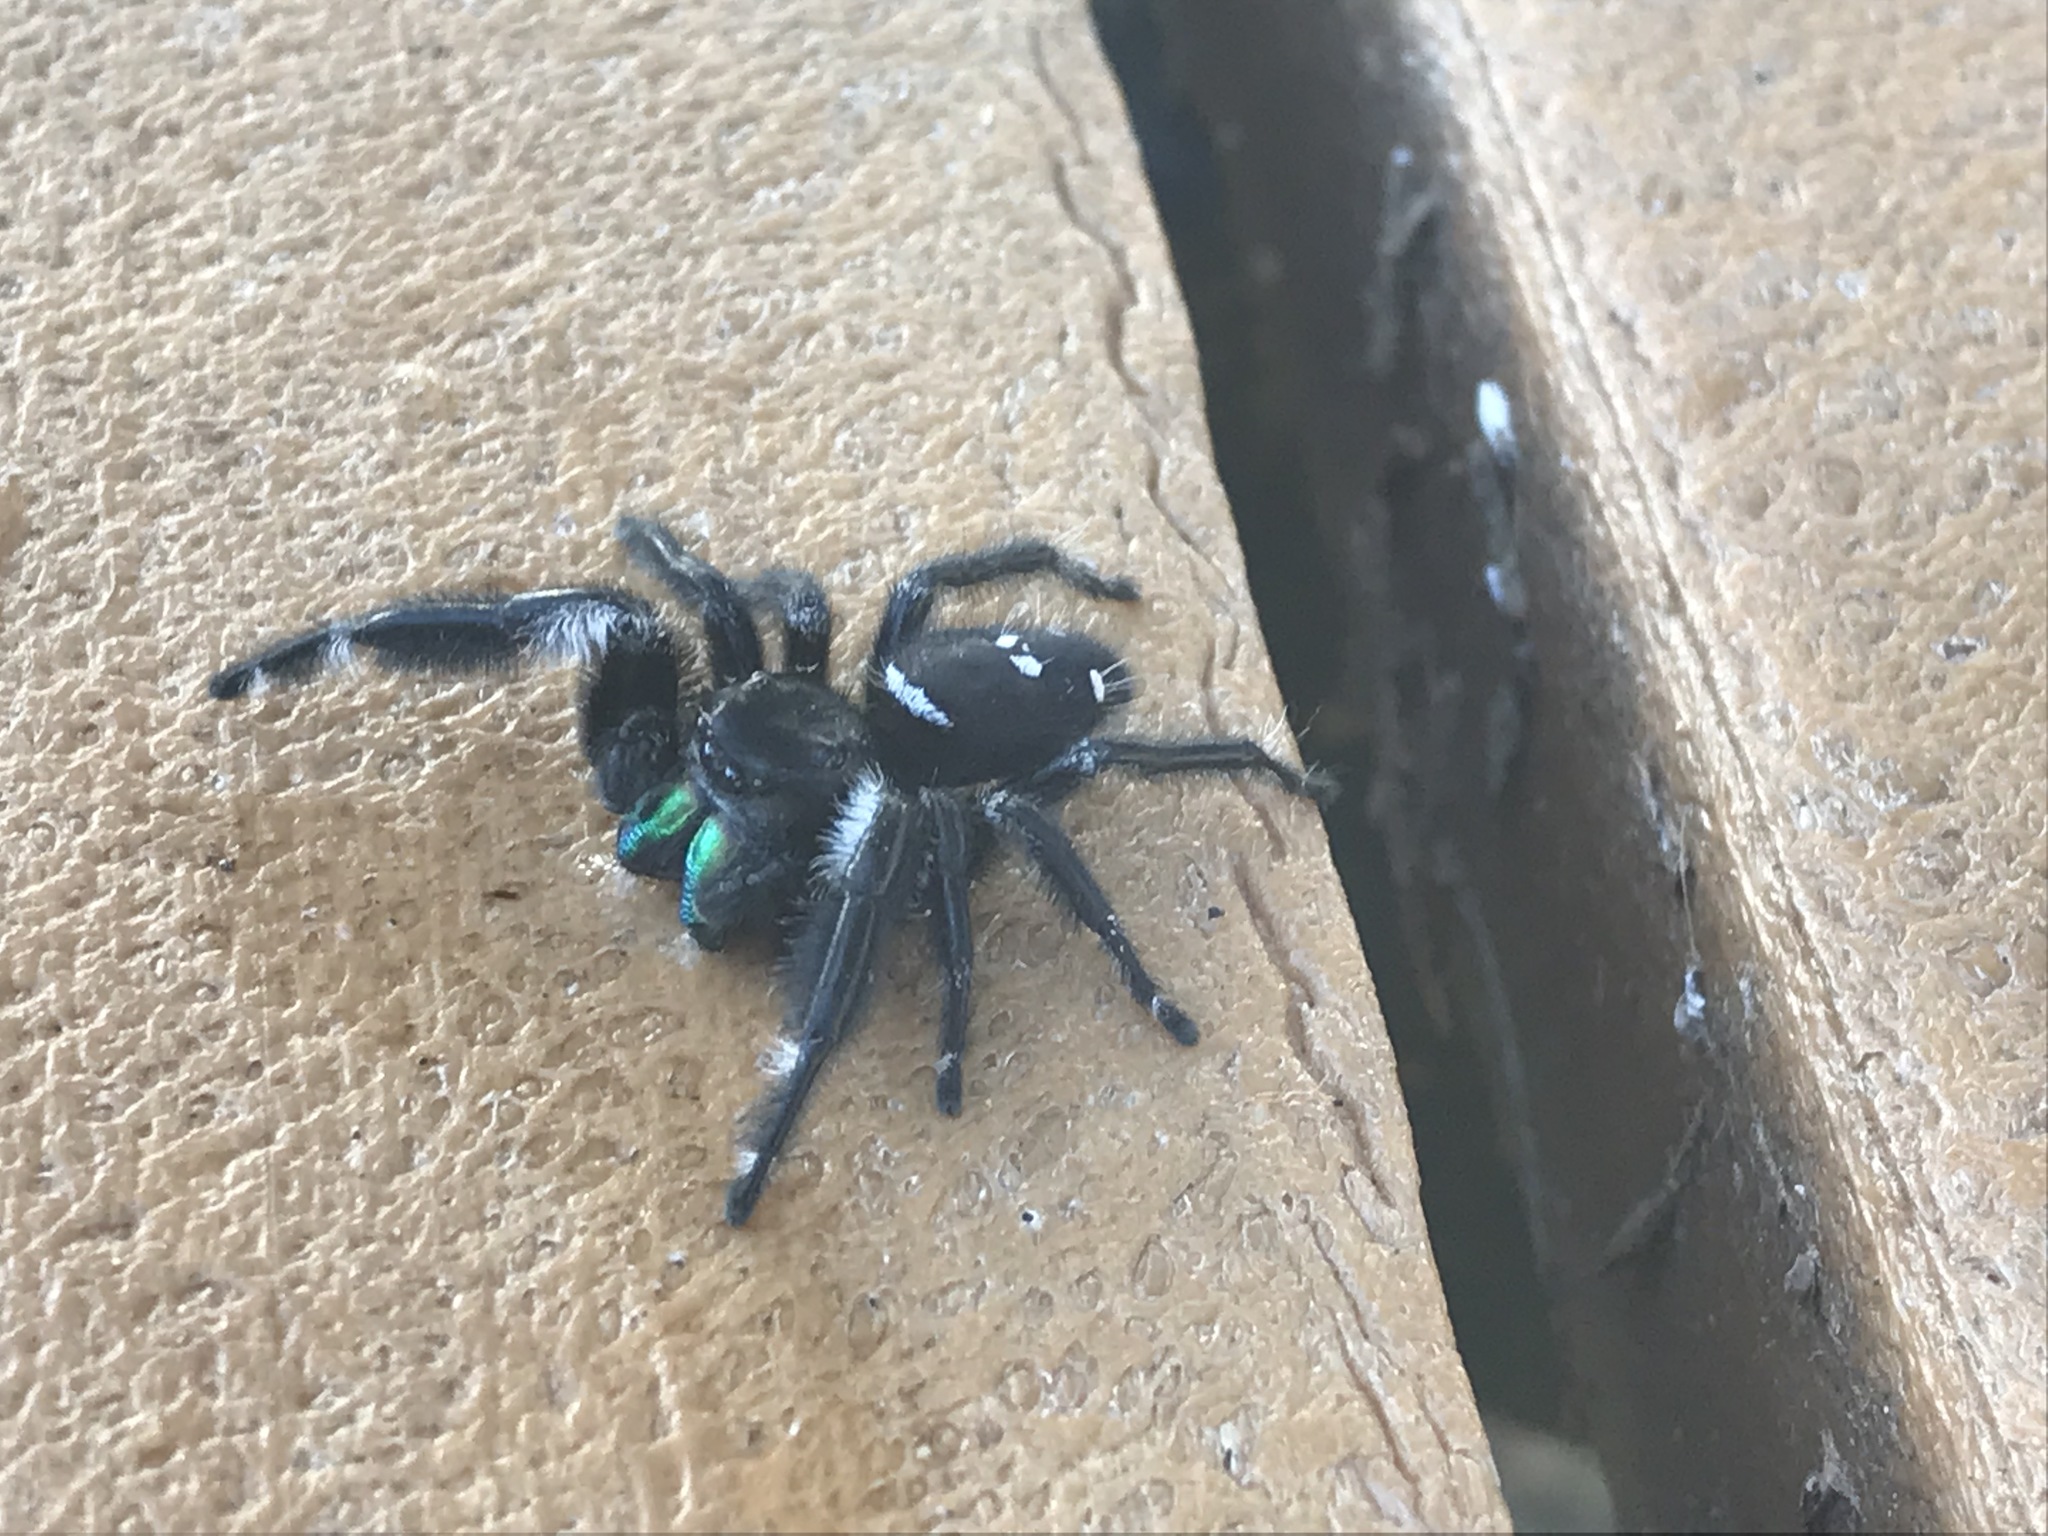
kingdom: Animalia
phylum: Arthropoda
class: Arachnida
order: Araneae
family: Salticidae
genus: Phidippus
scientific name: Phidippus regius
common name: Regal jumper
